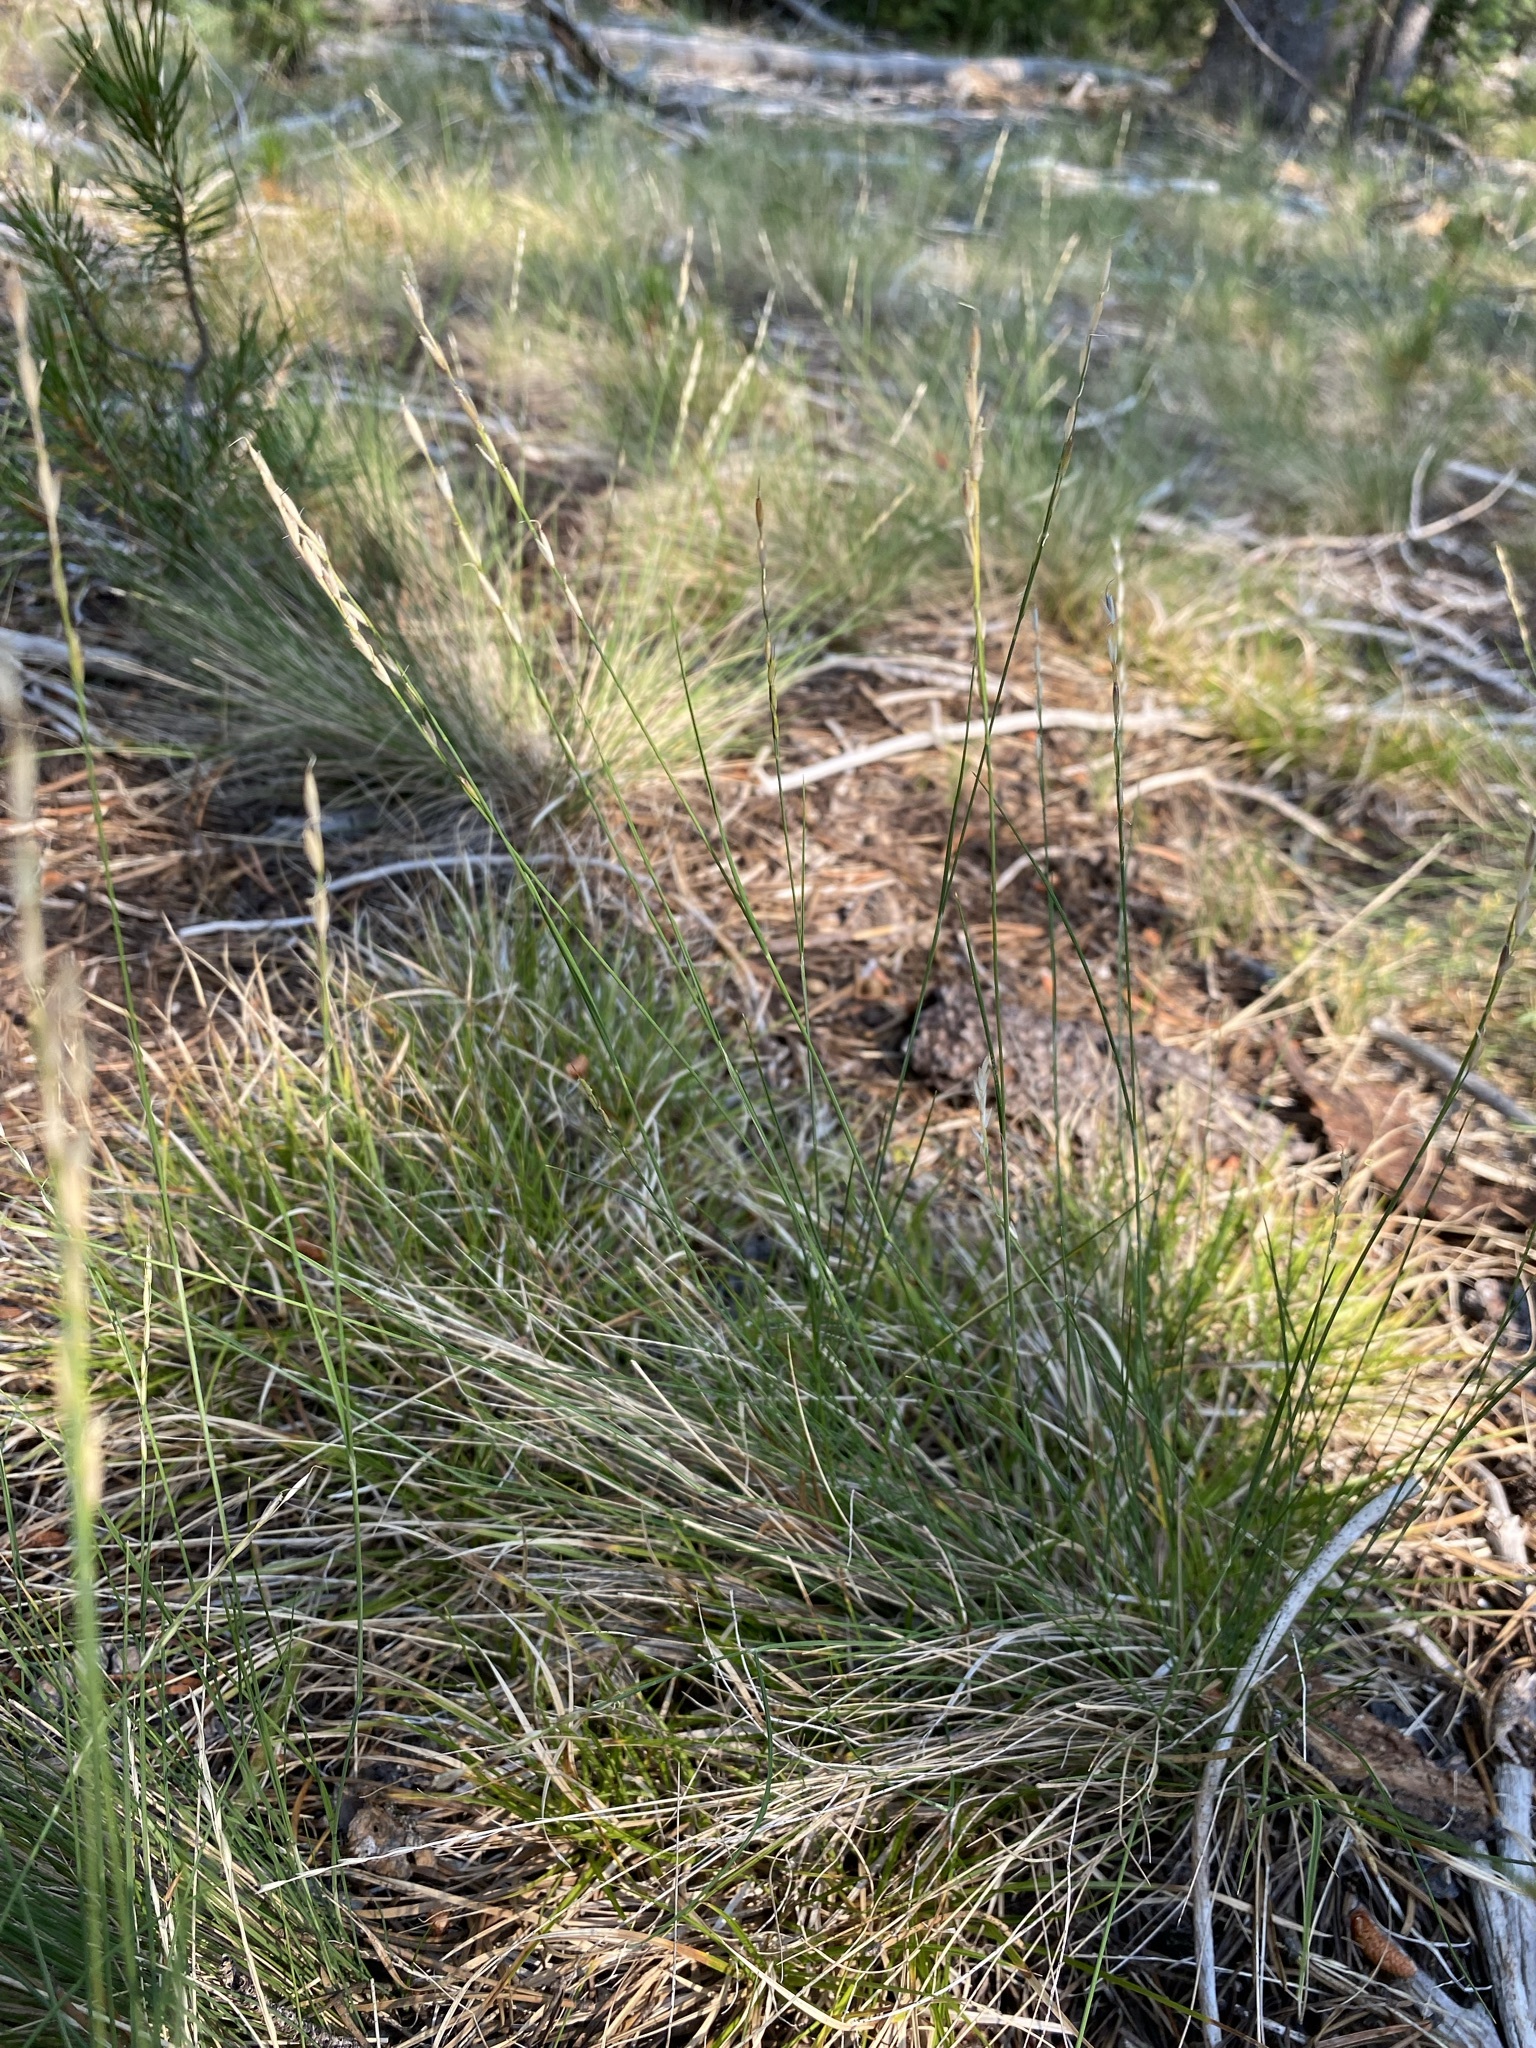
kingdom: Plantae
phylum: Tracheophyta
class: Liliopsida
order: Poales
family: Poaceae
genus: Piptatheropsis
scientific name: Piptatheropsis exigua
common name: Little mountain ricegrass
